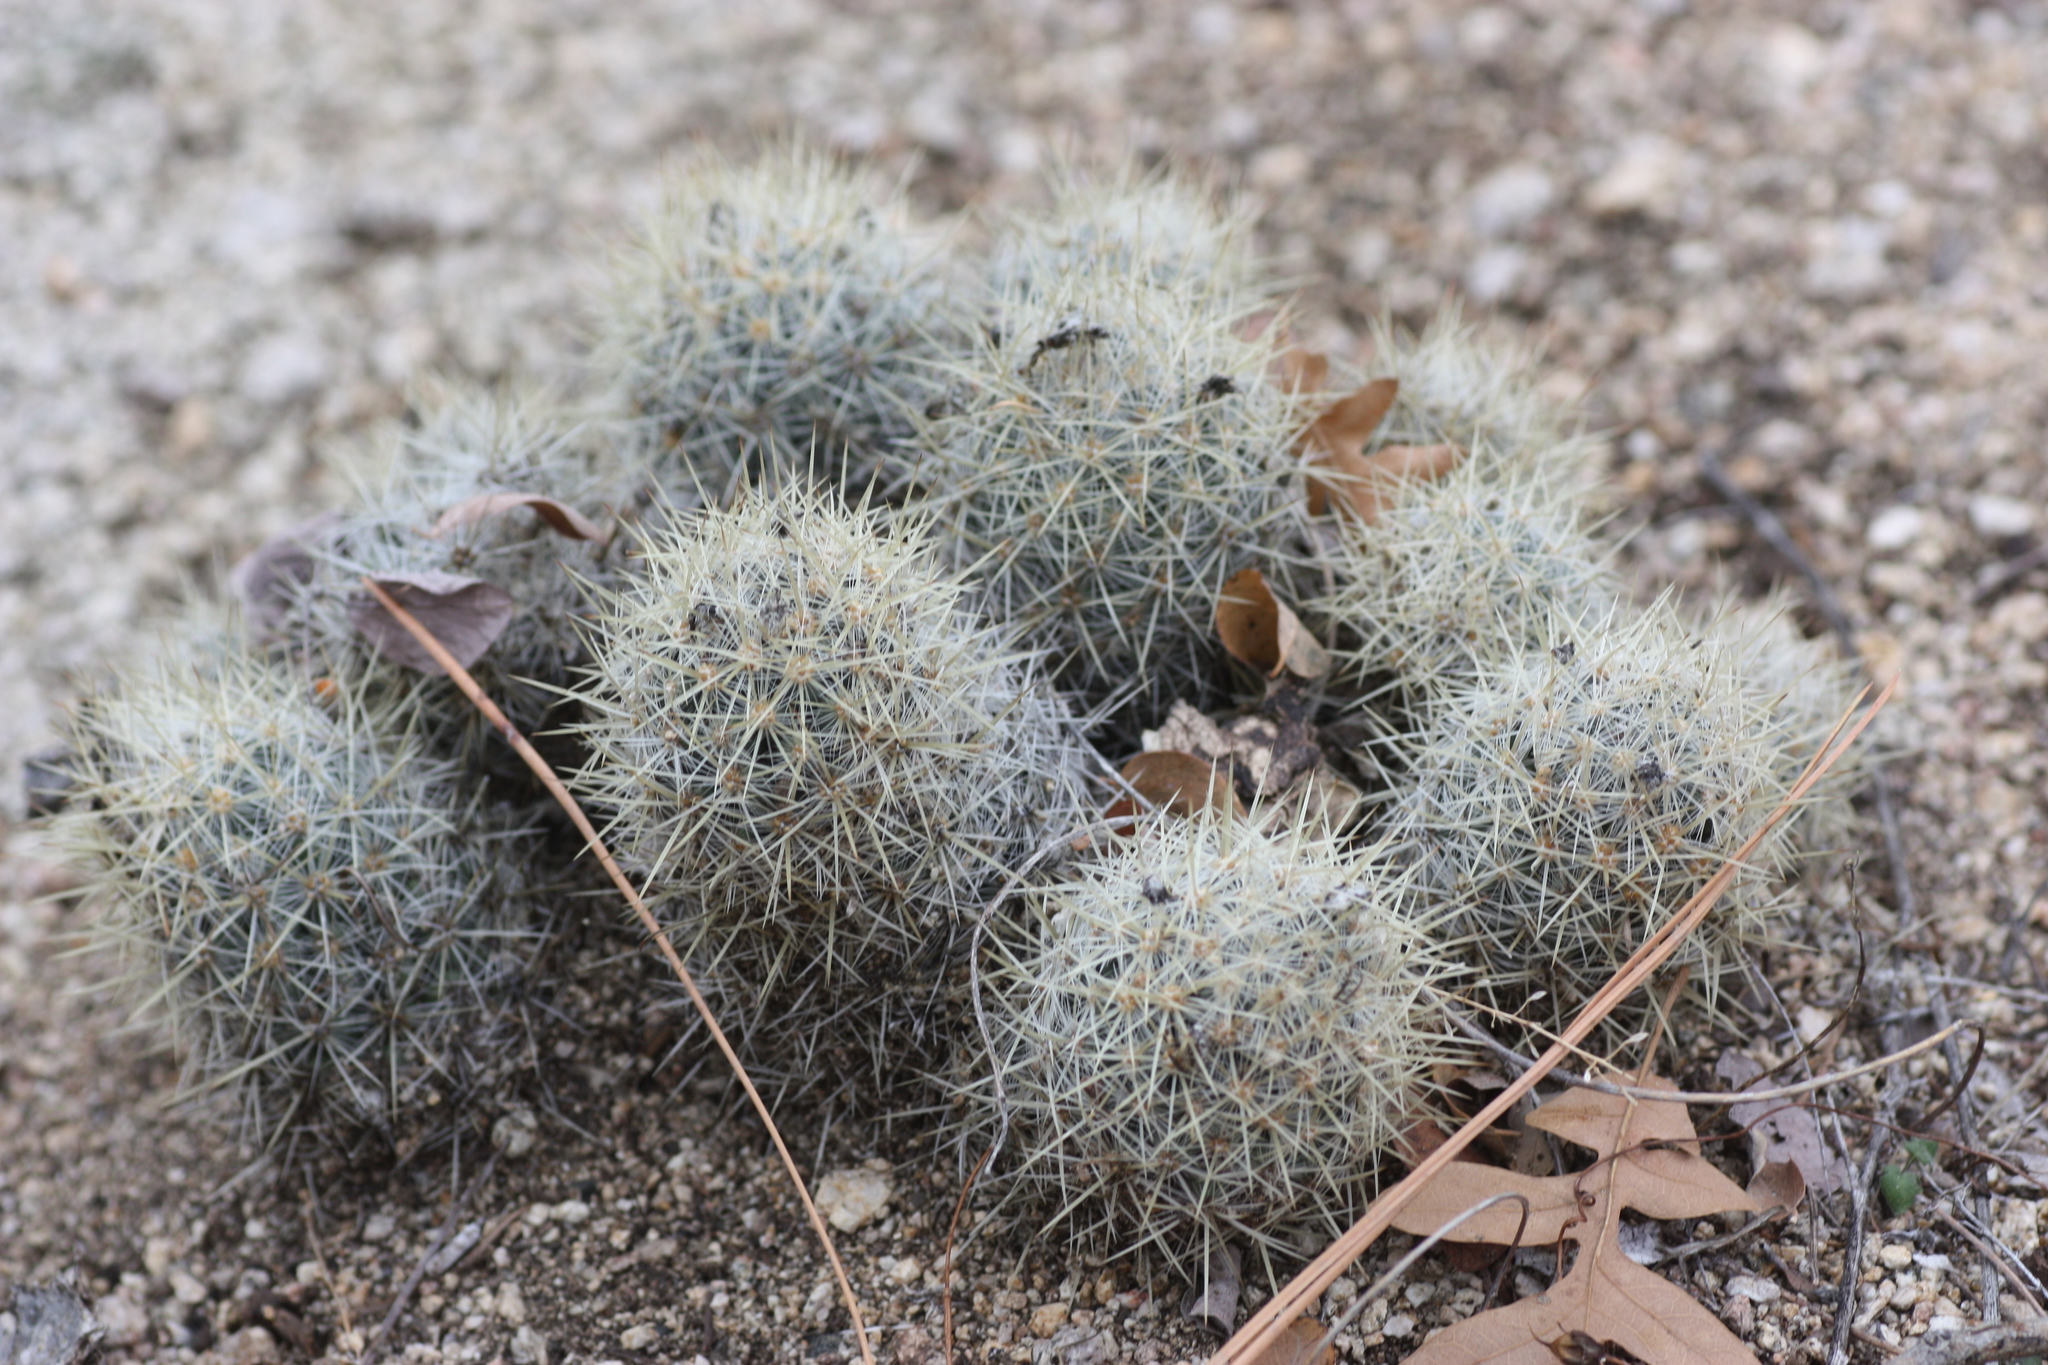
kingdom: Plantae
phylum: Tracheophyta
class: Magnoliopsida
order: Caryophyllales
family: Cactaceae
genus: Pelecyphora
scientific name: Pelecyphora sneedii
